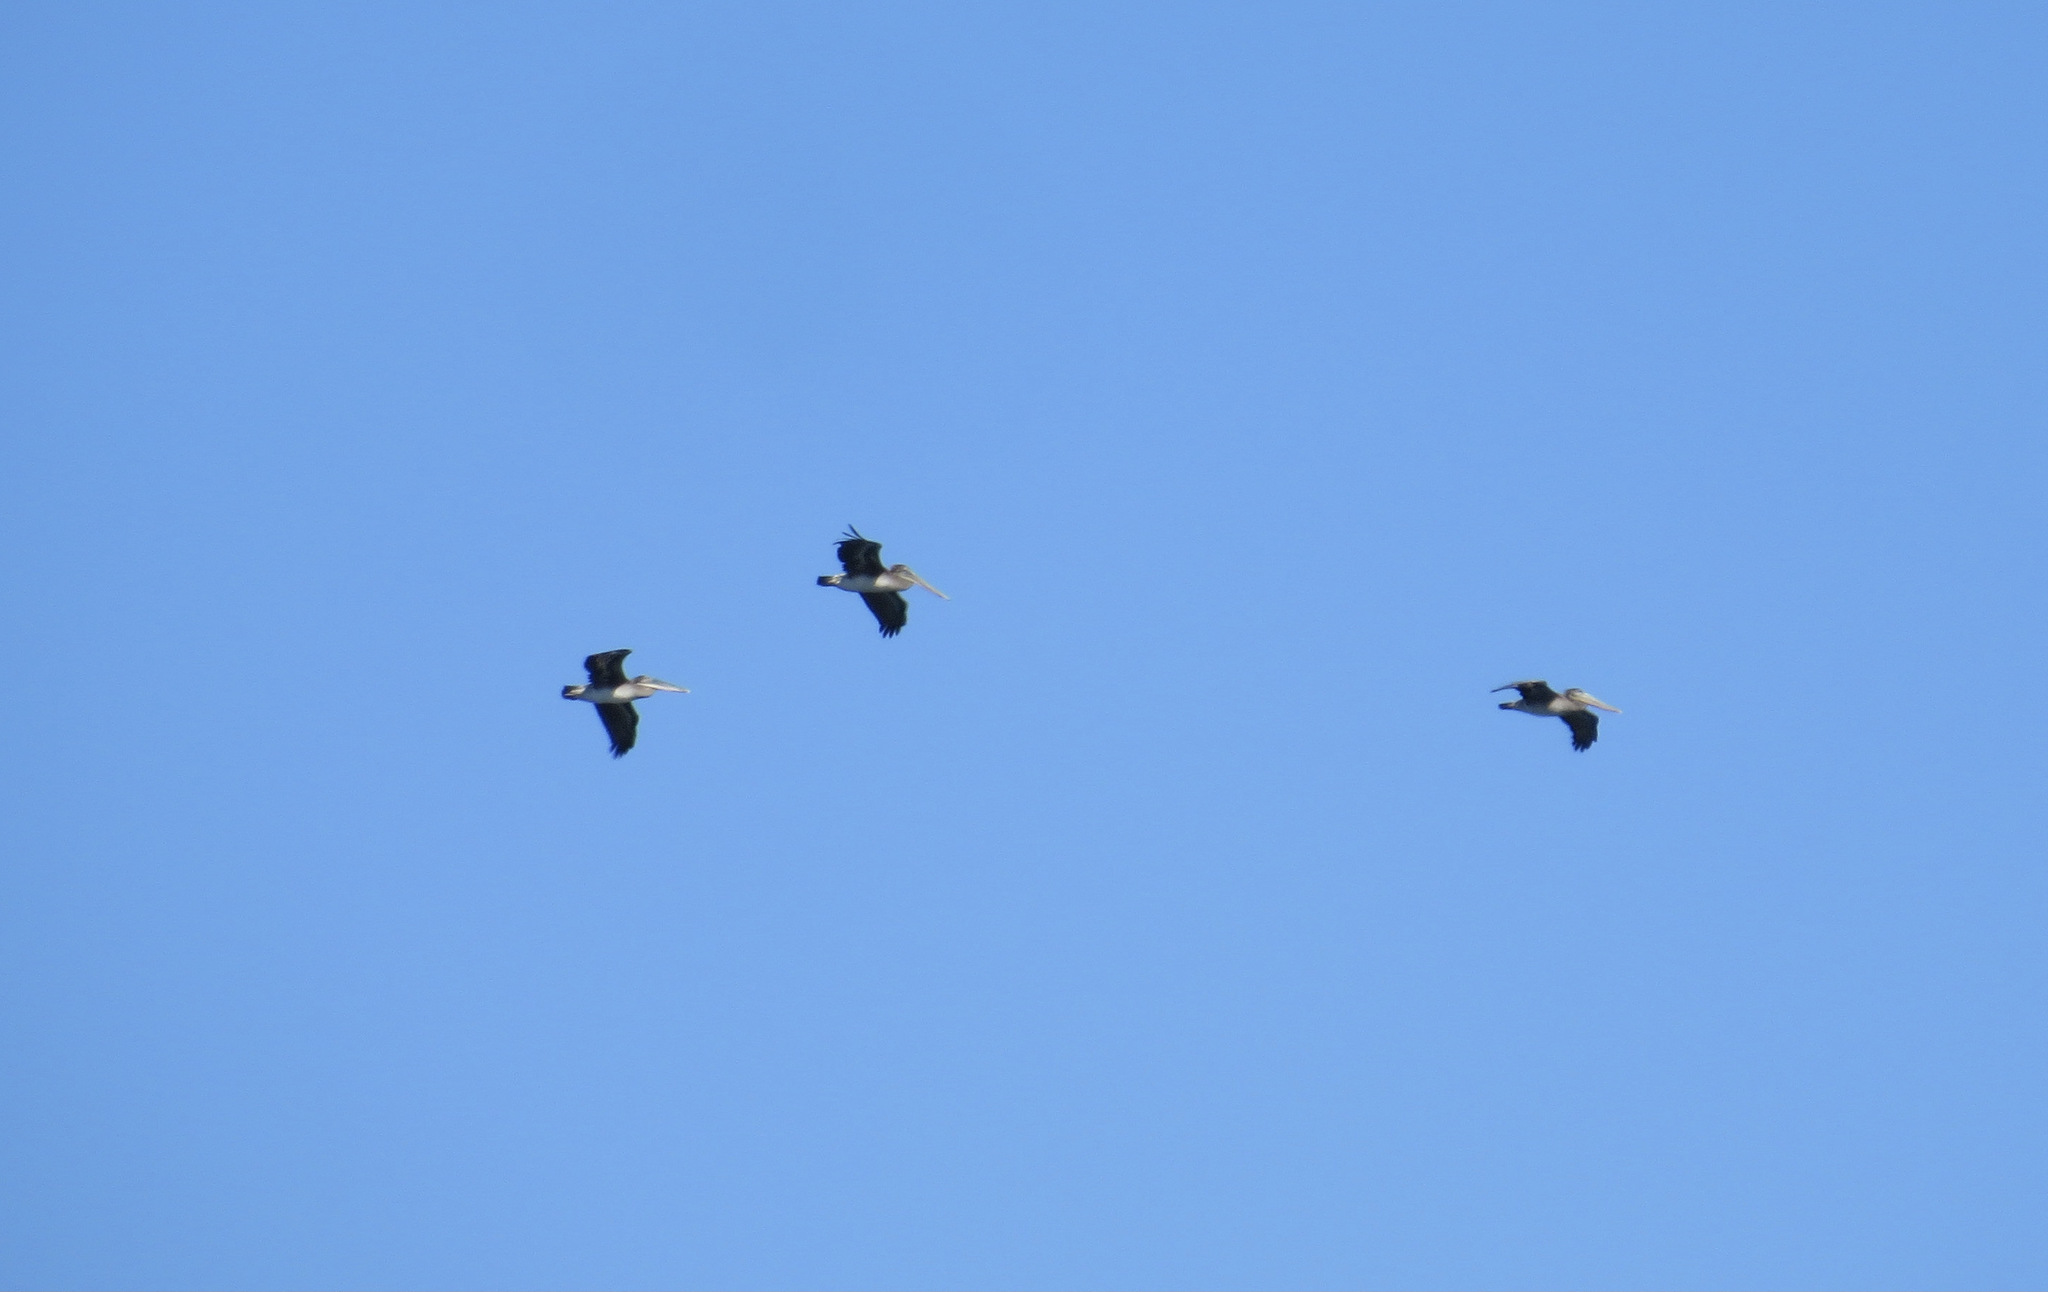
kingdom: Animalia
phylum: Chordata
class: Aves
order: Pelecaniformes
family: Pelecanidae
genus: Pelecanus
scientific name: Pelecanus occidentalis
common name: Brown pelican
